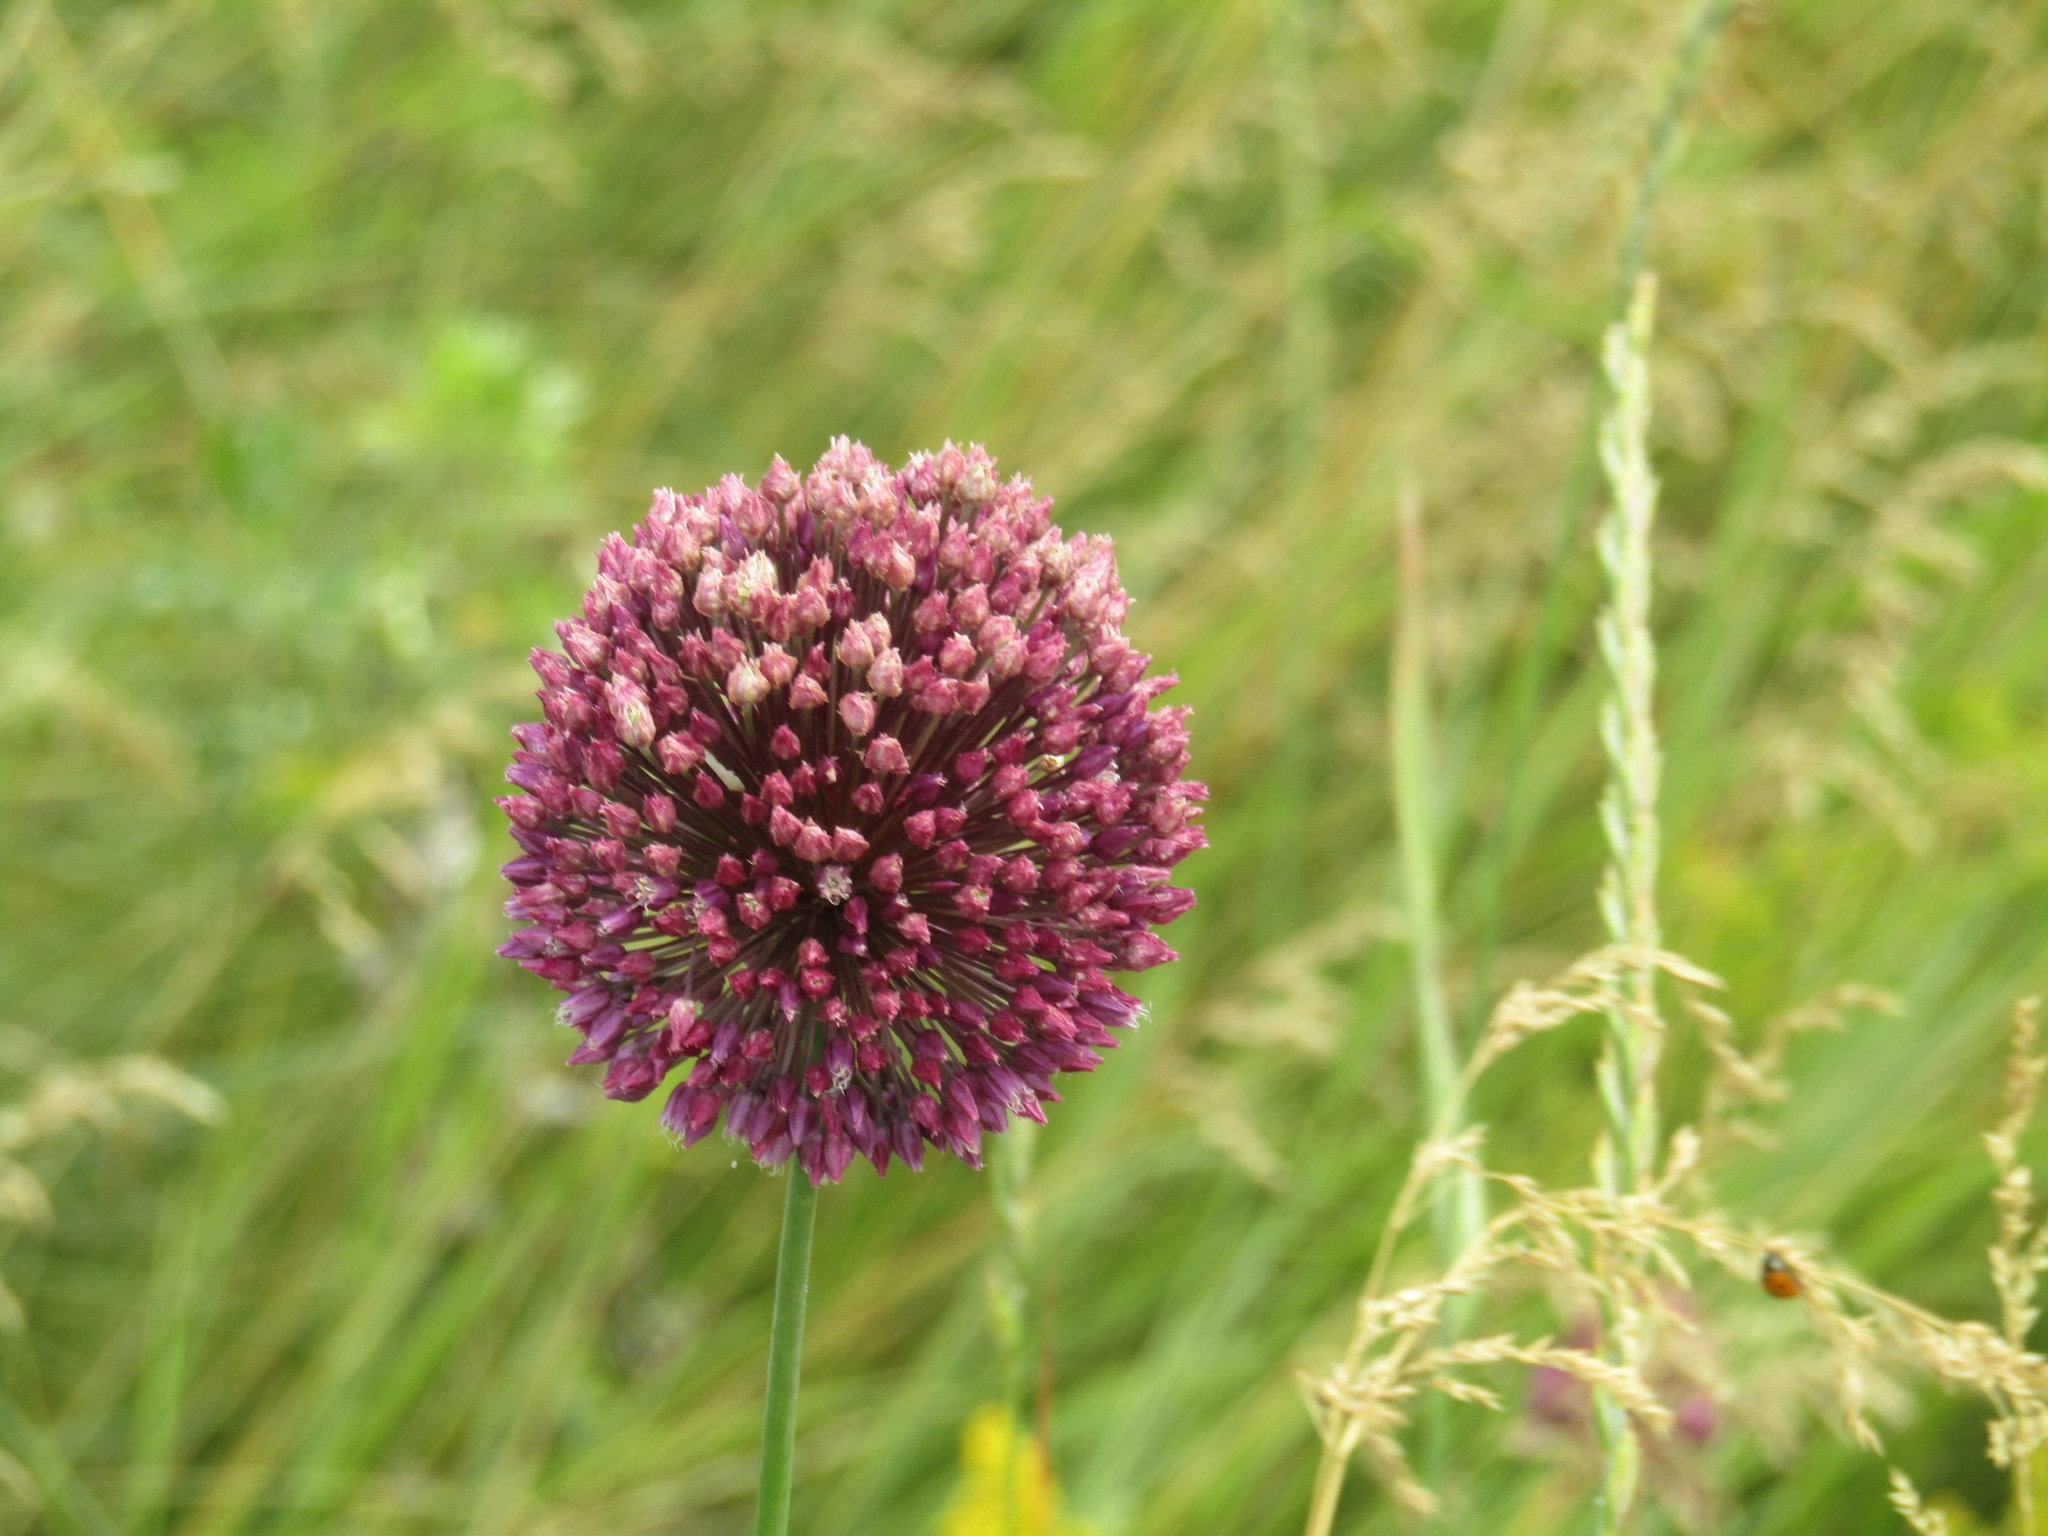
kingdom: Plantae
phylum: Tracheophyta
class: Liliopsida
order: Asparagales
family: Amaryllidaceae
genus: Allium
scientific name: Allium sphaerocephalon
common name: Round-headed leek
